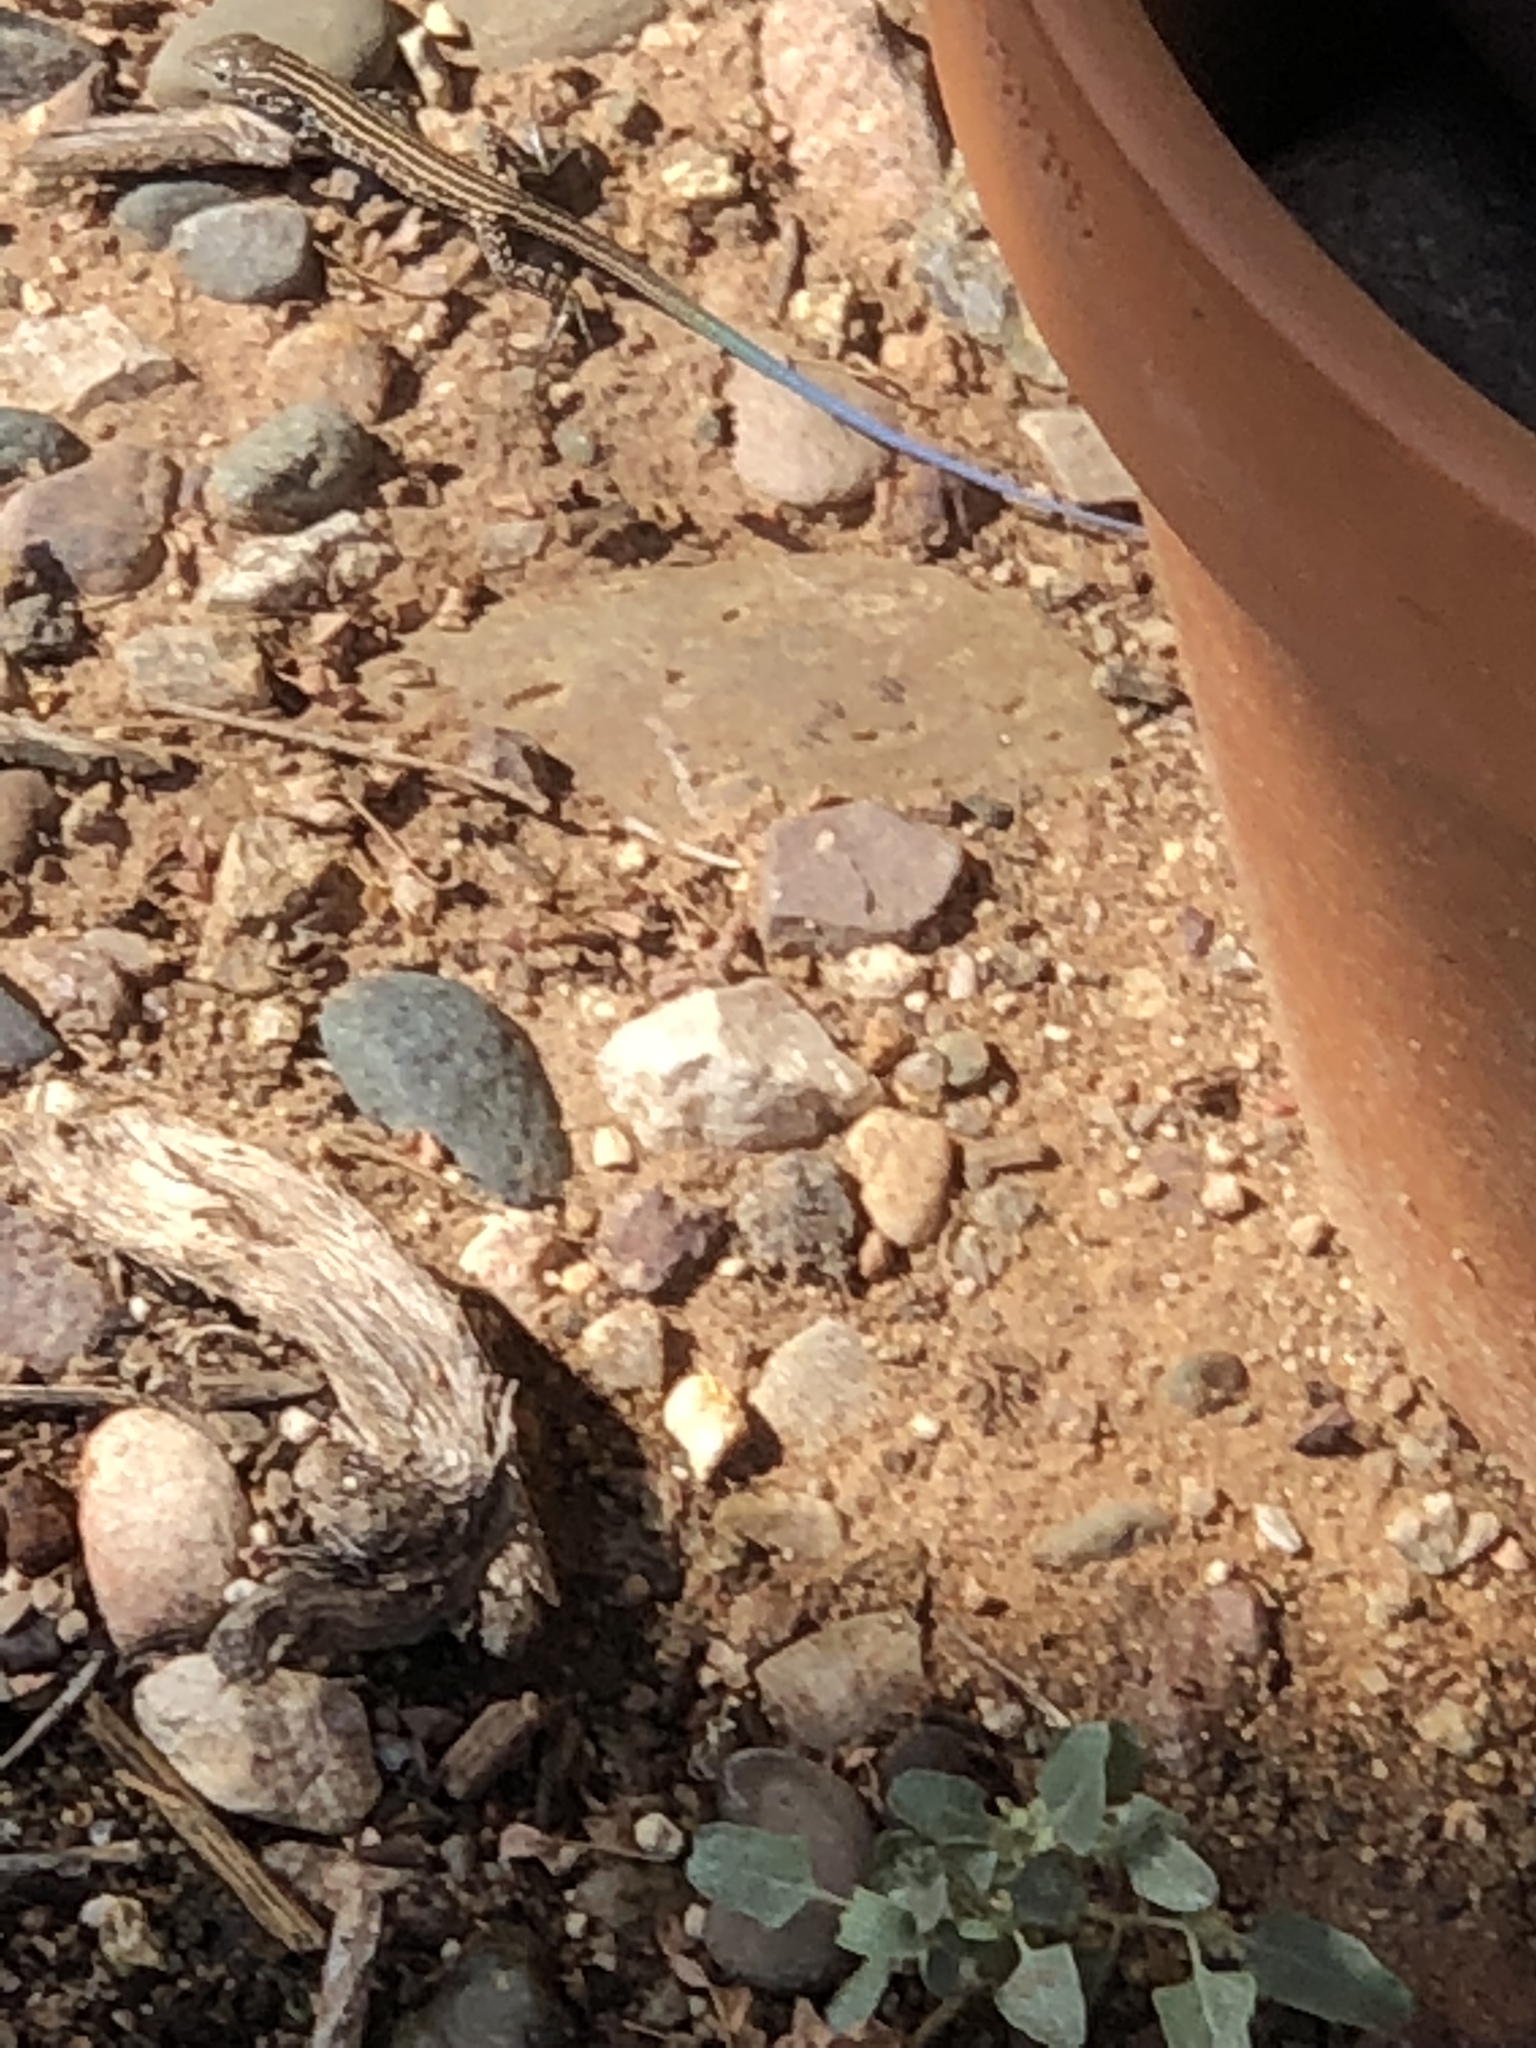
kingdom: Animalia
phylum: Chordata
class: Squamata
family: Teiidae
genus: Aspidoscelis
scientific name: Aspidoscelis tigris
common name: Tiger whiptail
